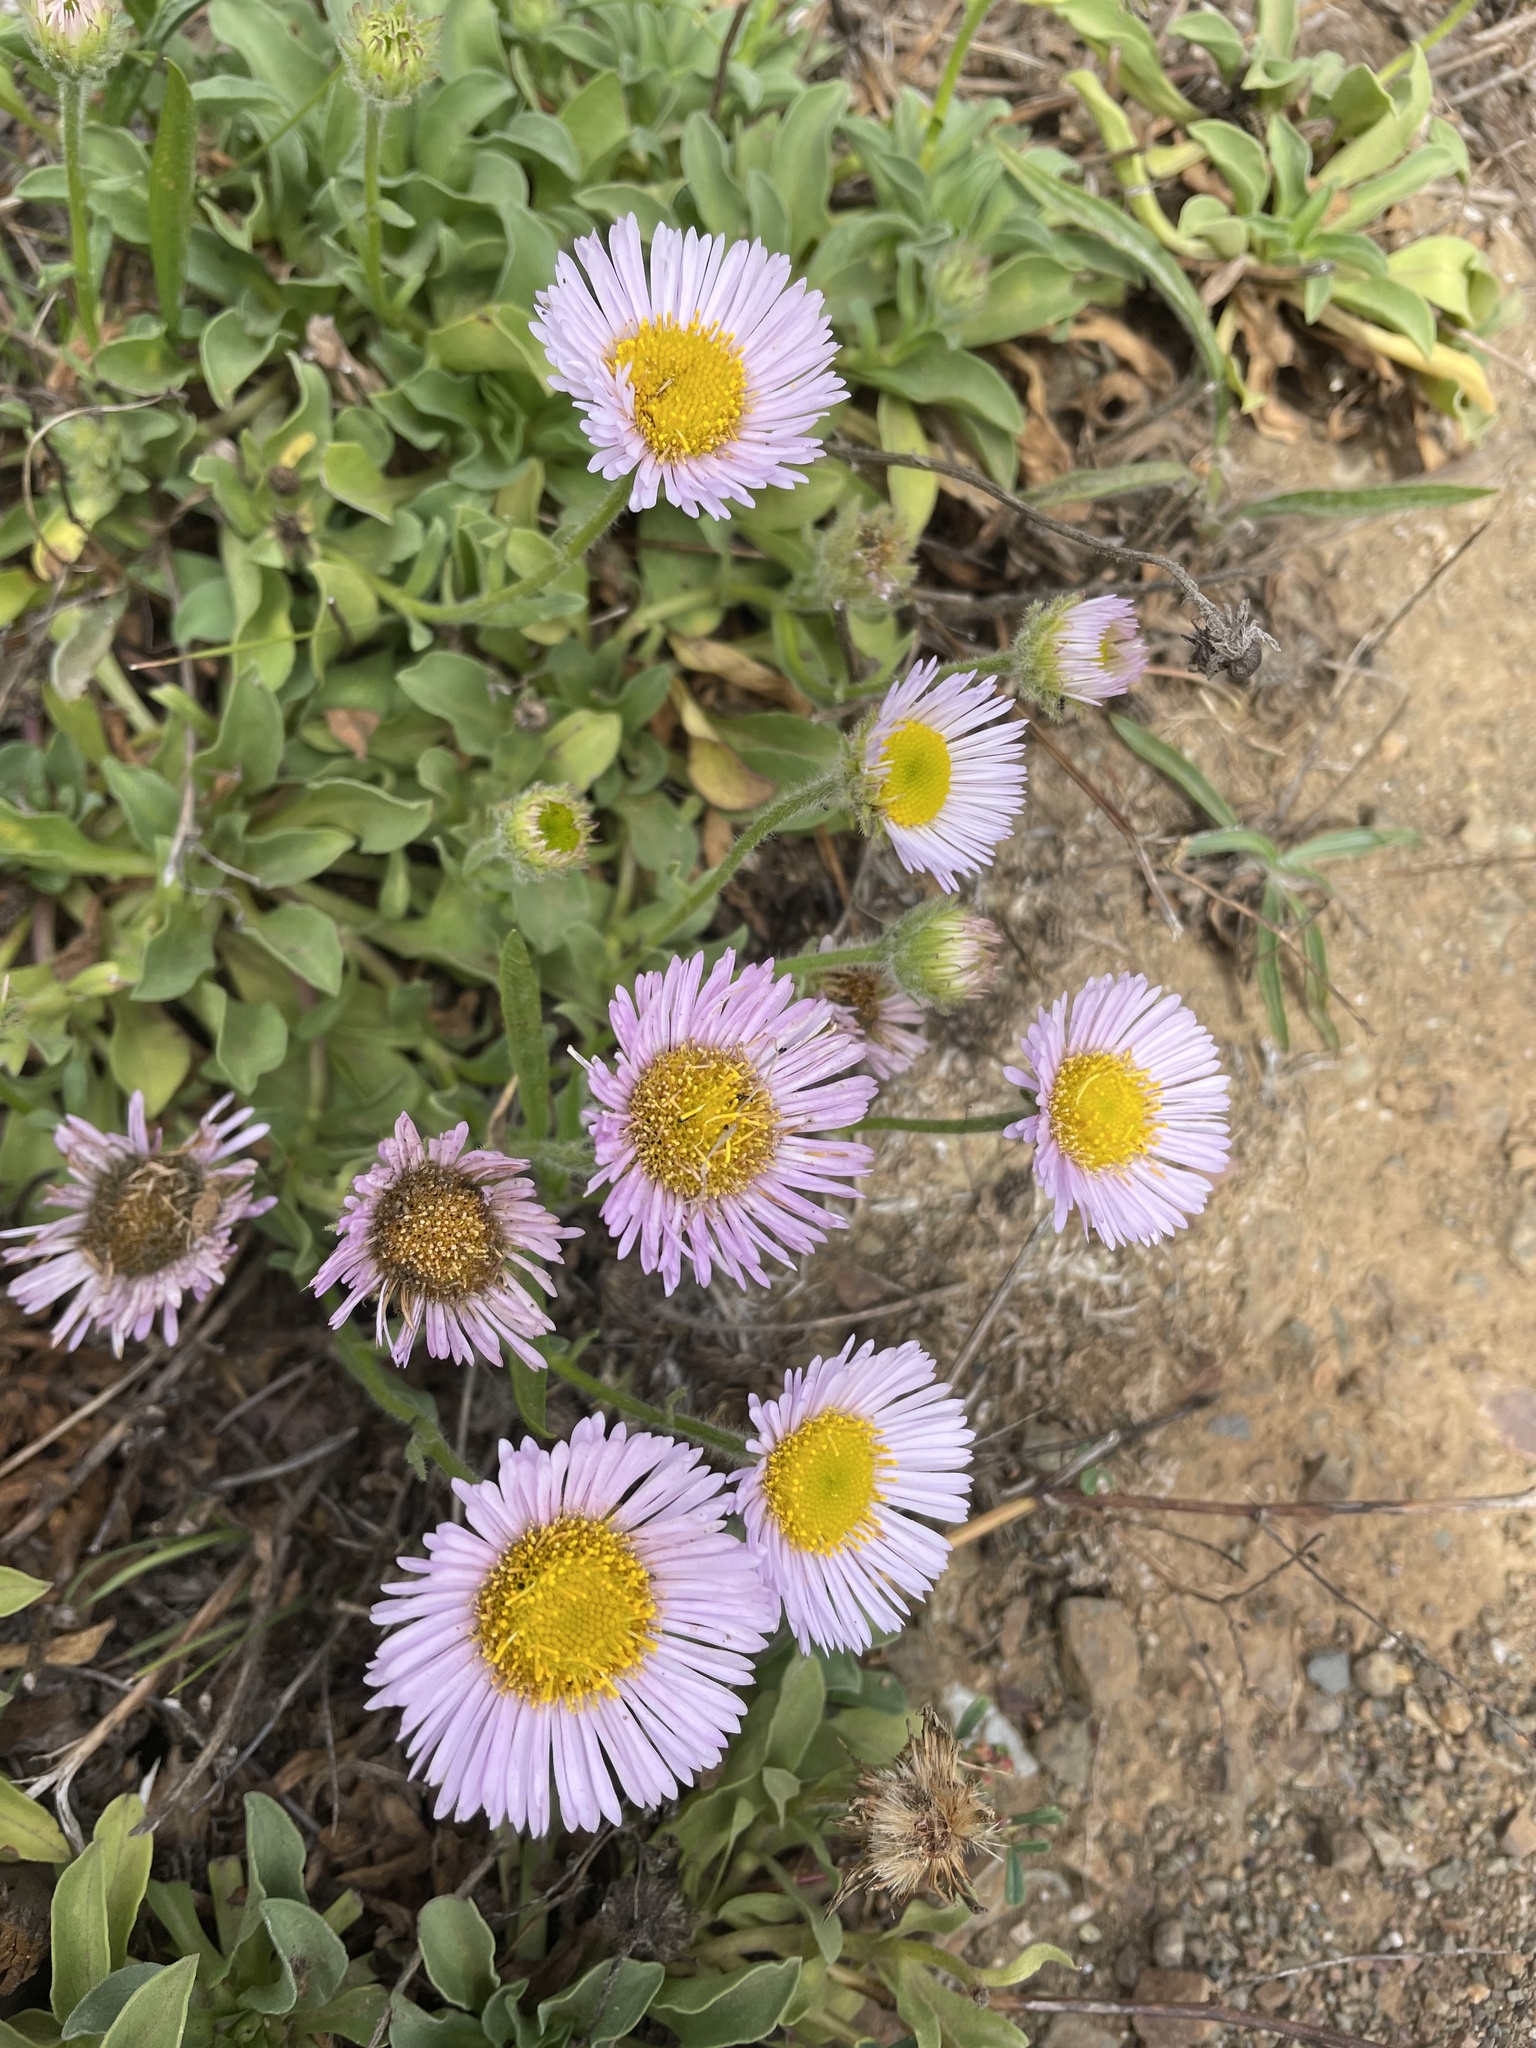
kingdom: Plantae
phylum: Tracheophyta
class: Magnoliopsida
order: Asterales
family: Asteraceae
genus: Erigeron
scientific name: Erigeron glaucus
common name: Seaside daisy
